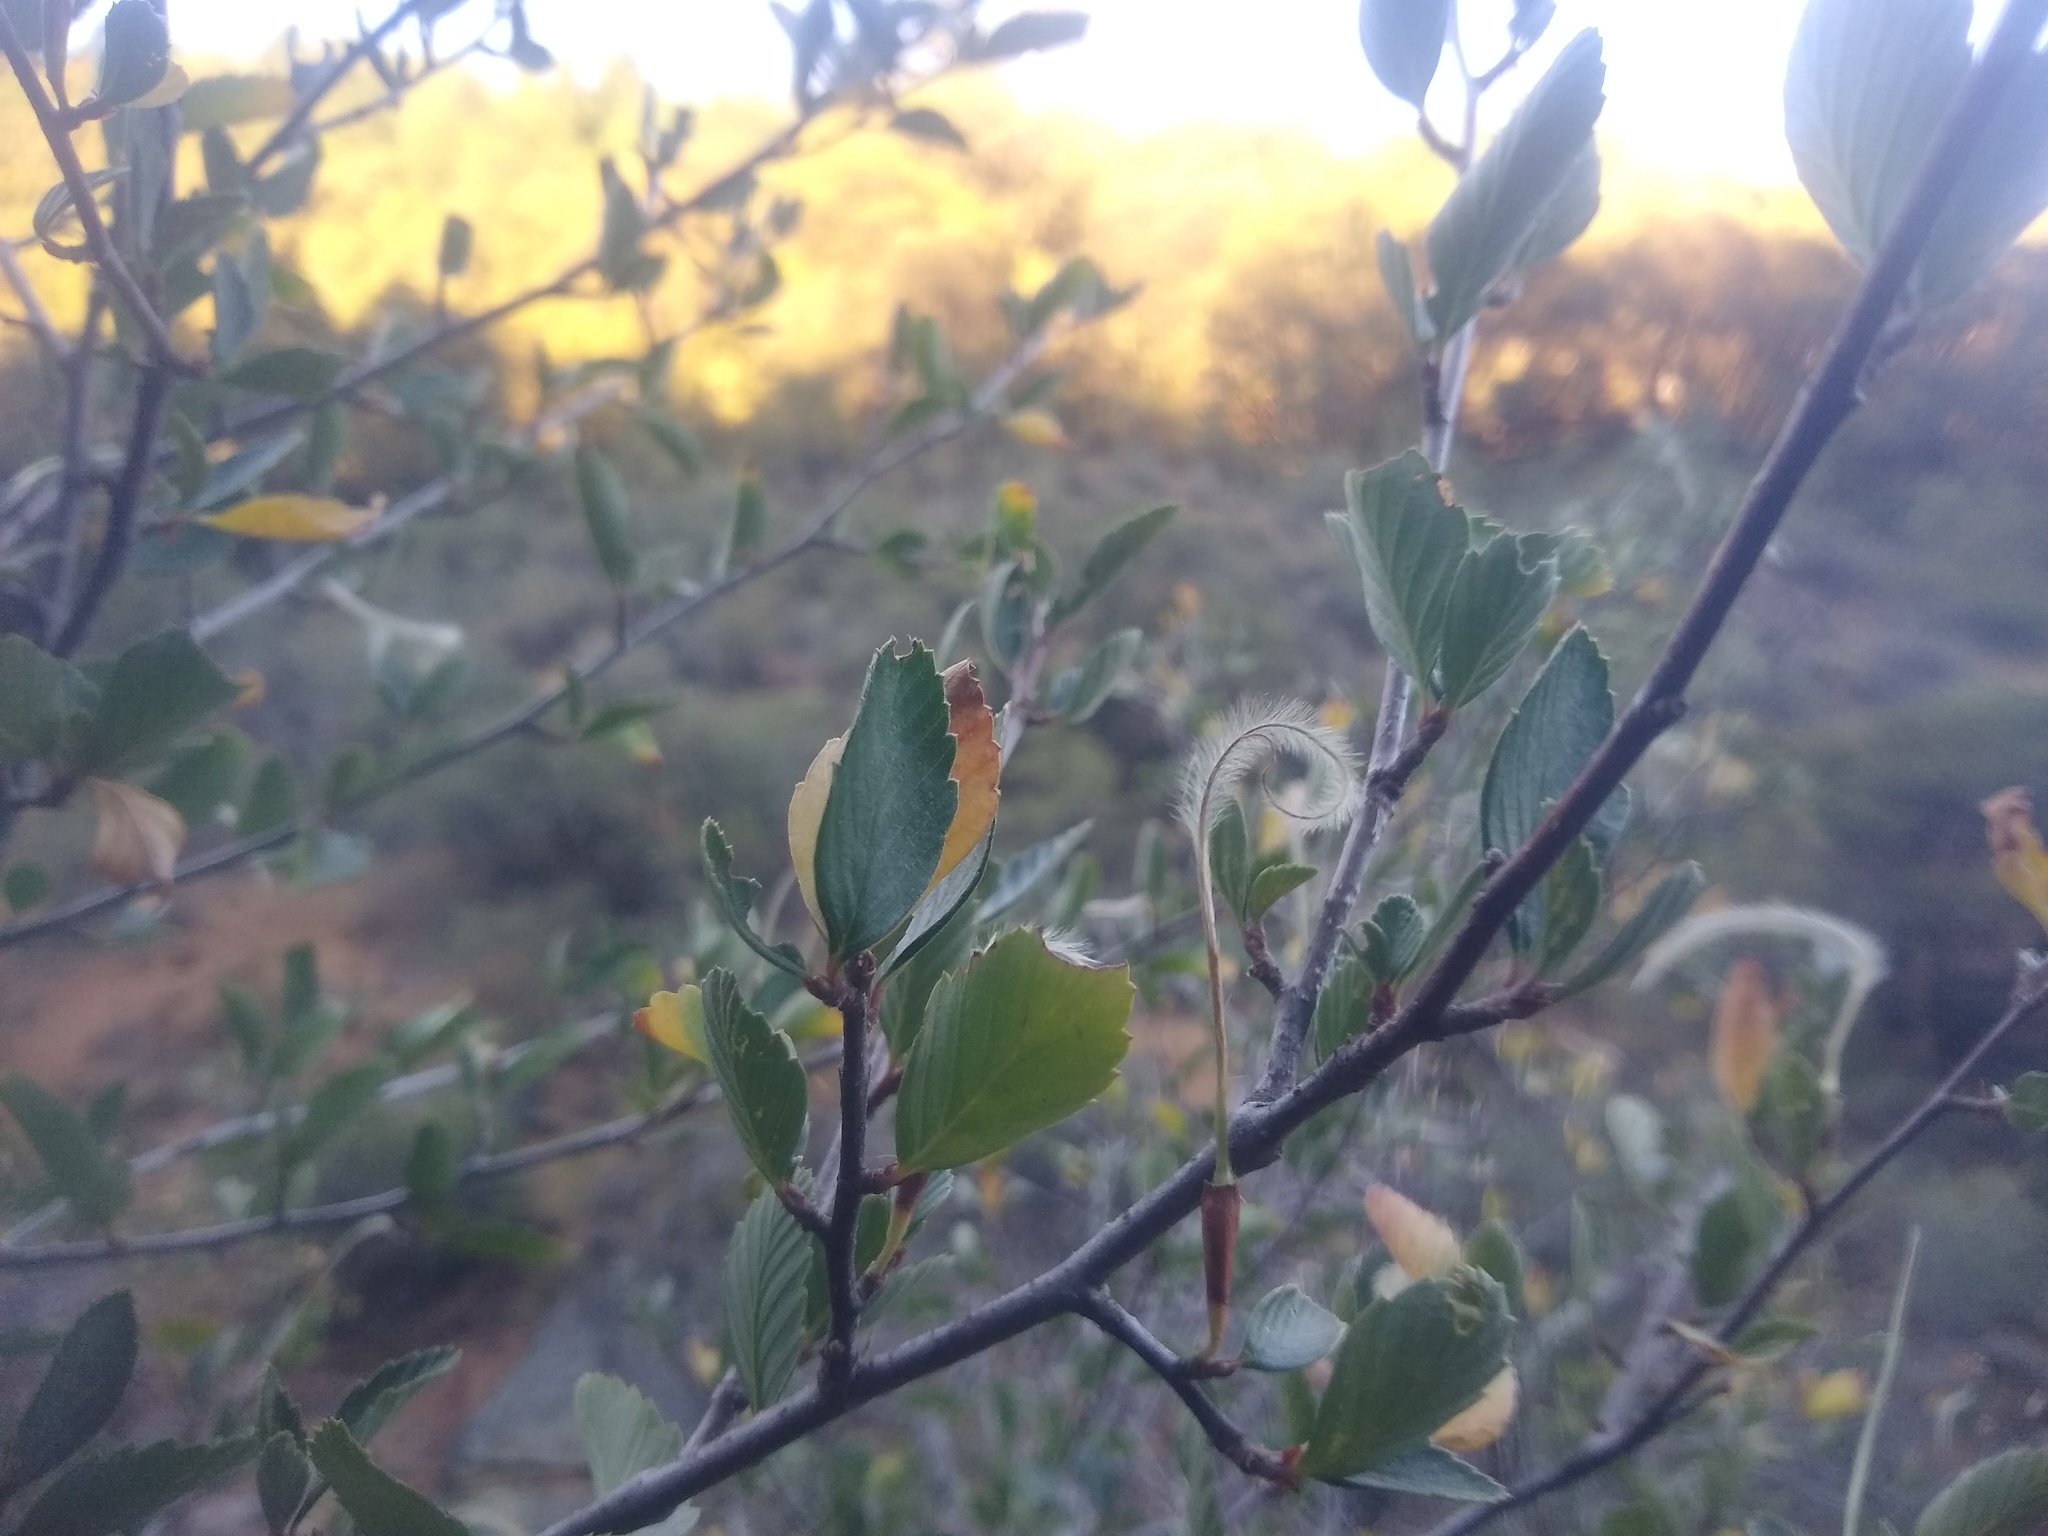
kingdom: Plantae
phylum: Tracheophyta
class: Magnoliopsida
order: Rosales
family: Rosaceae
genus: Cercocarpus
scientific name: Cercocarpus betuloides
